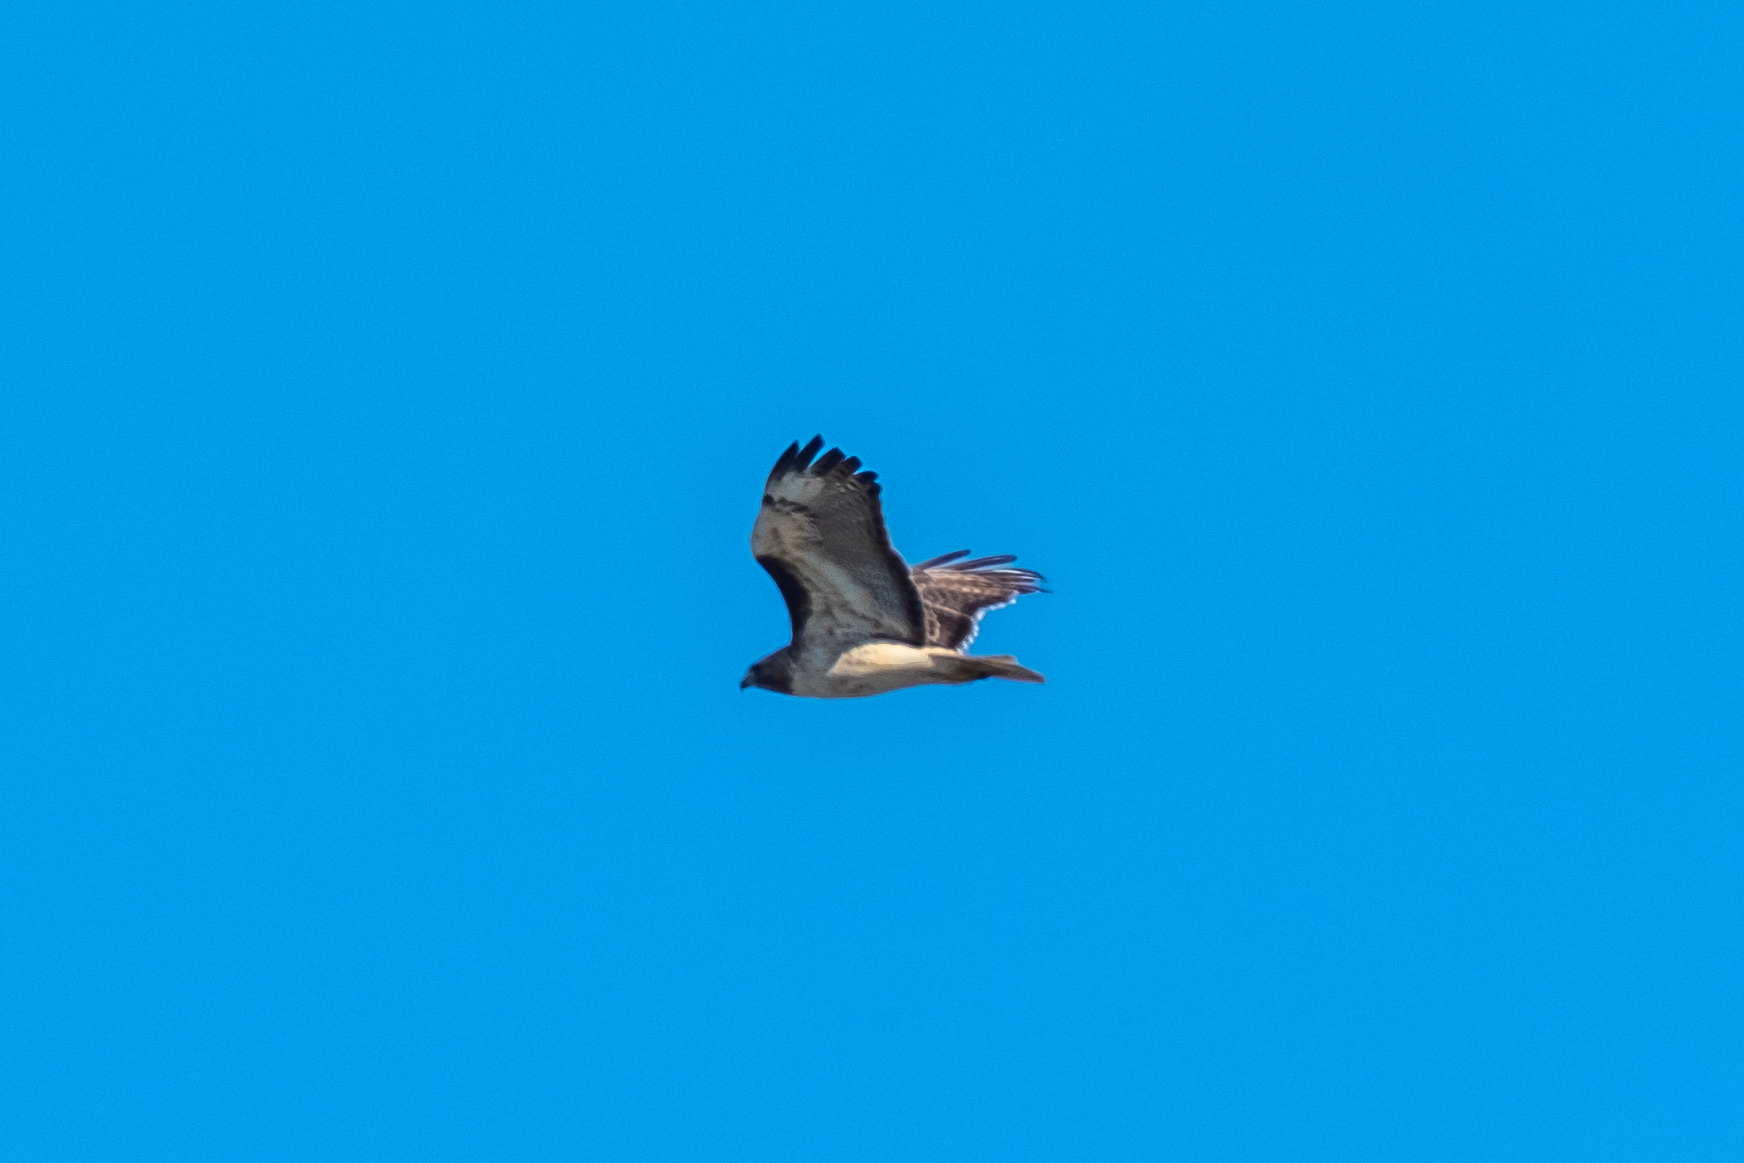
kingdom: Animalia
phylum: Chordata
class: Aves
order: Accipitriformes
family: Accipitridae
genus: Buteo
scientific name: Buteo jamaicensis
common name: Red-tailed hawk
